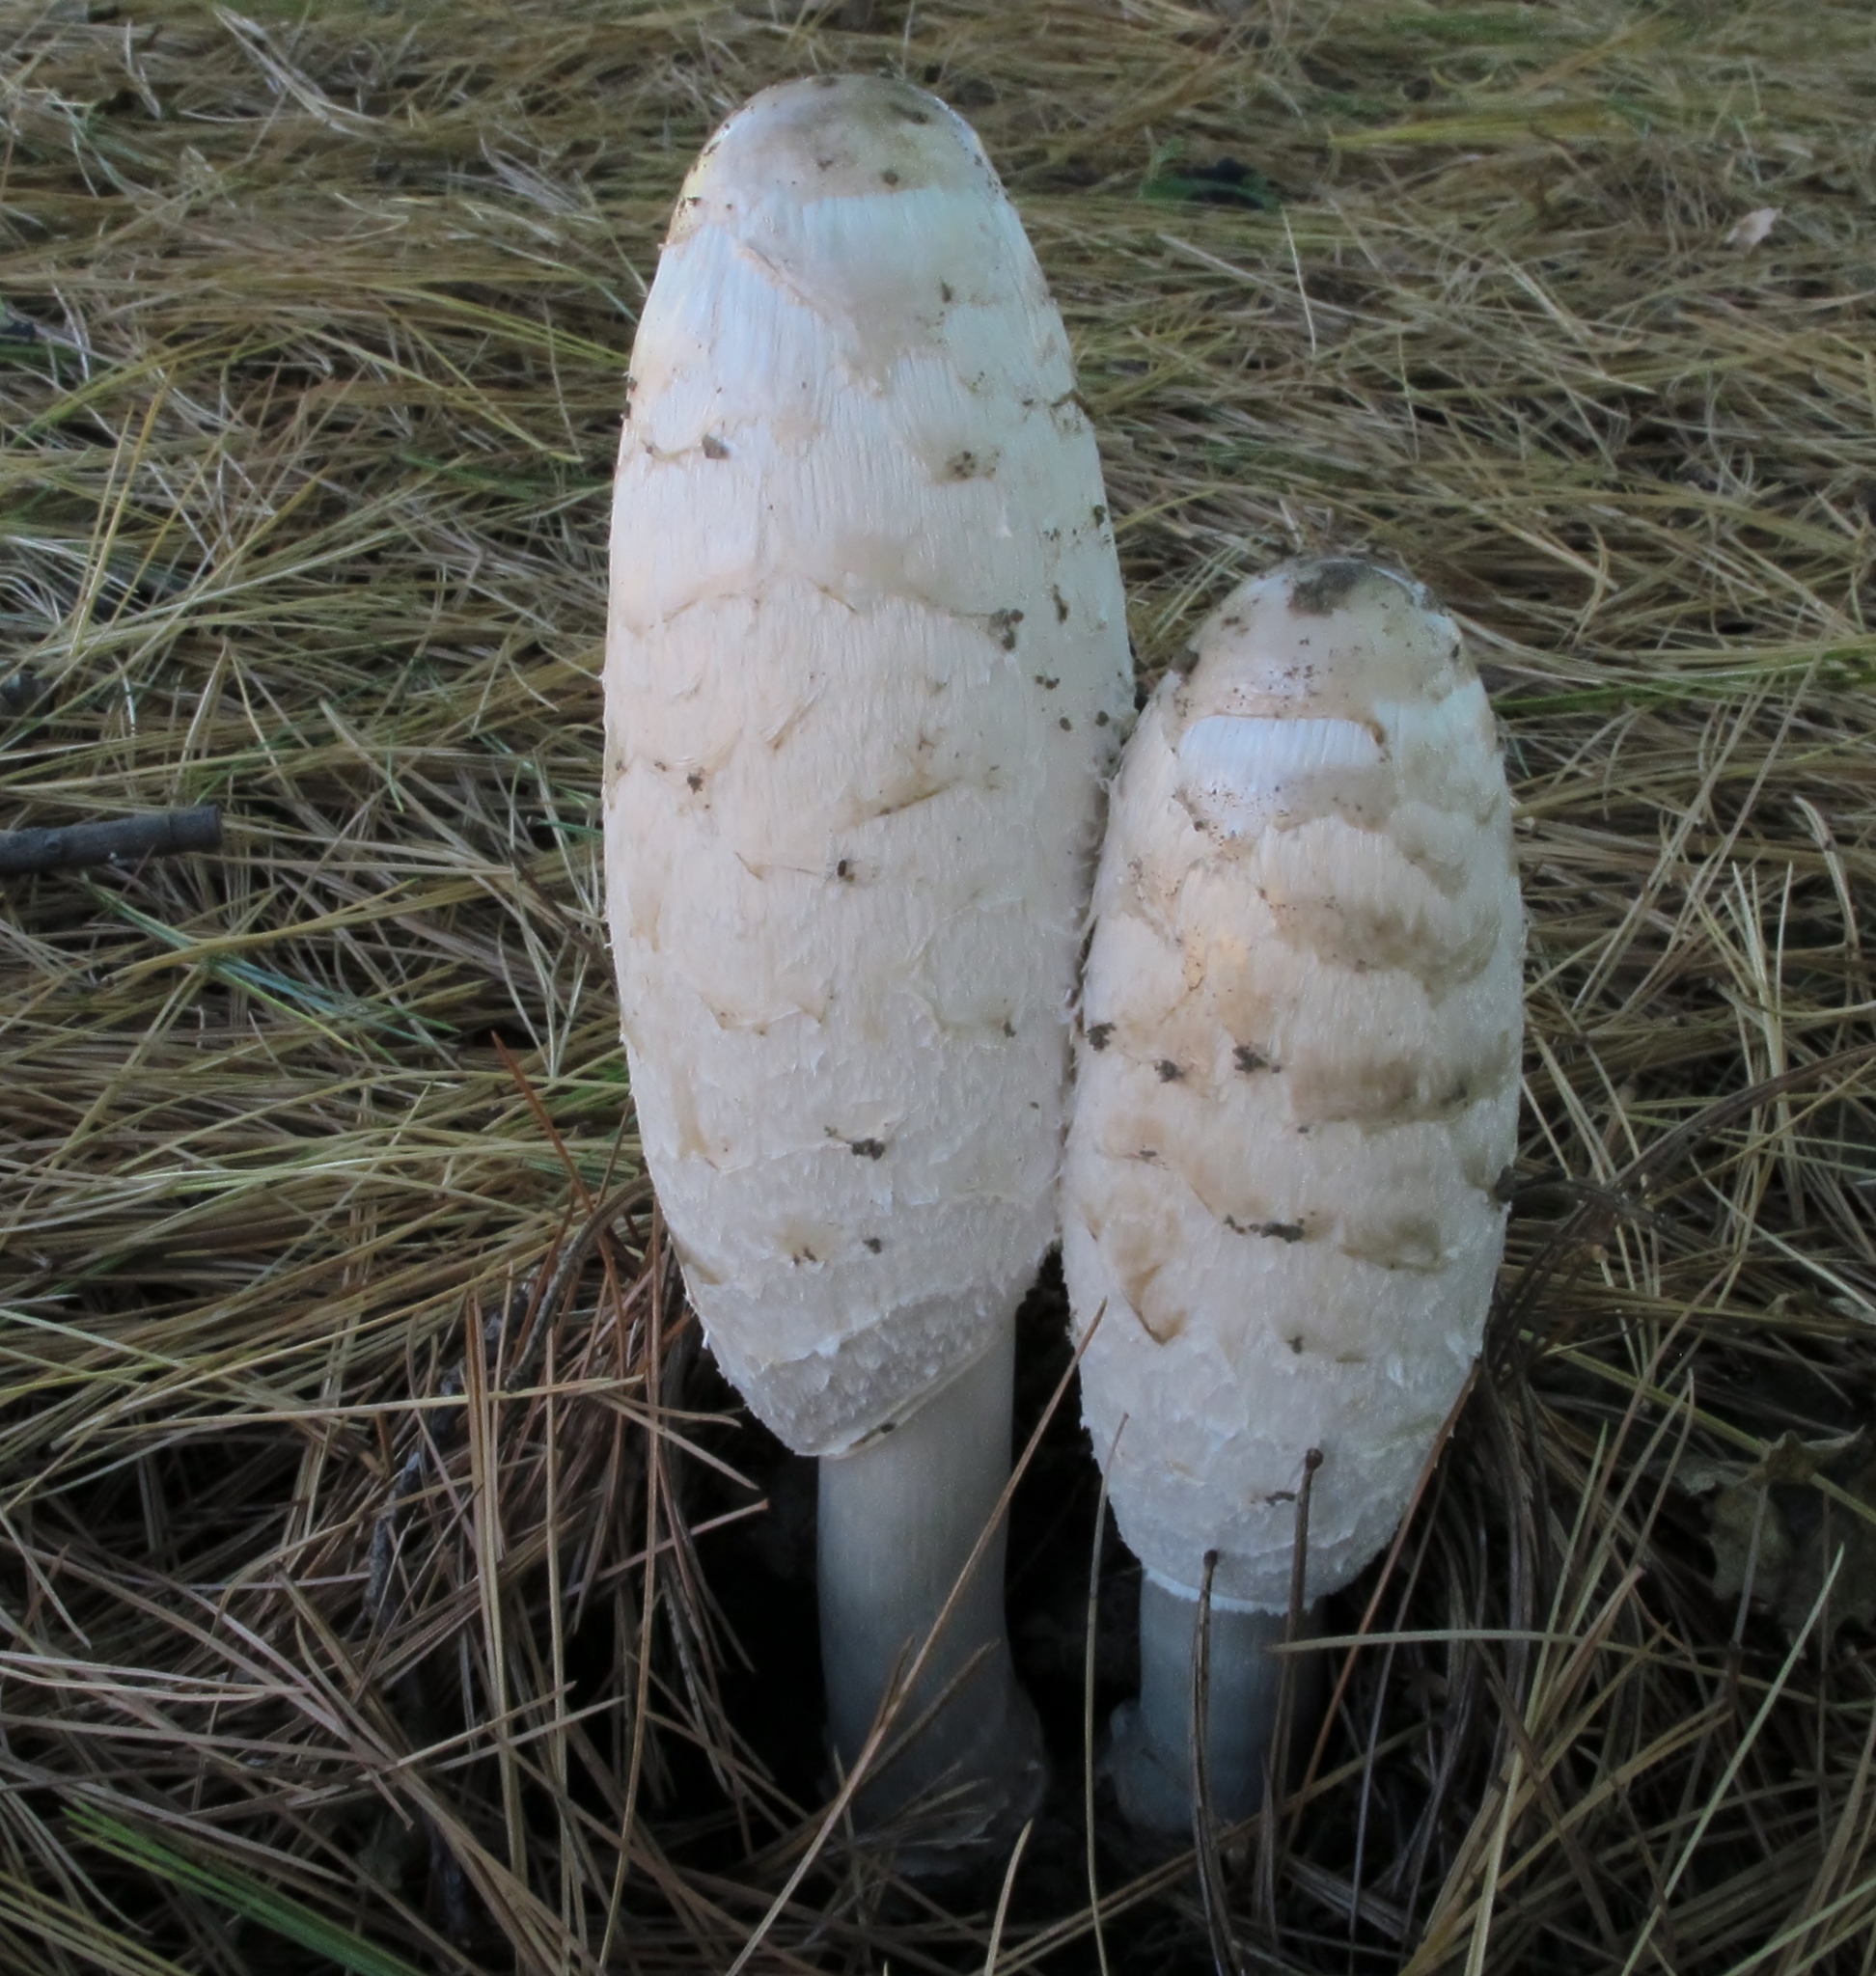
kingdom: Fungi
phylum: Basidiomycota
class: Agaricomycetes
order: Agaricales
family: Agaricaceae
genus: Coprinus
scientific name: Coprinus comatus
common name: Lawyer's wig
